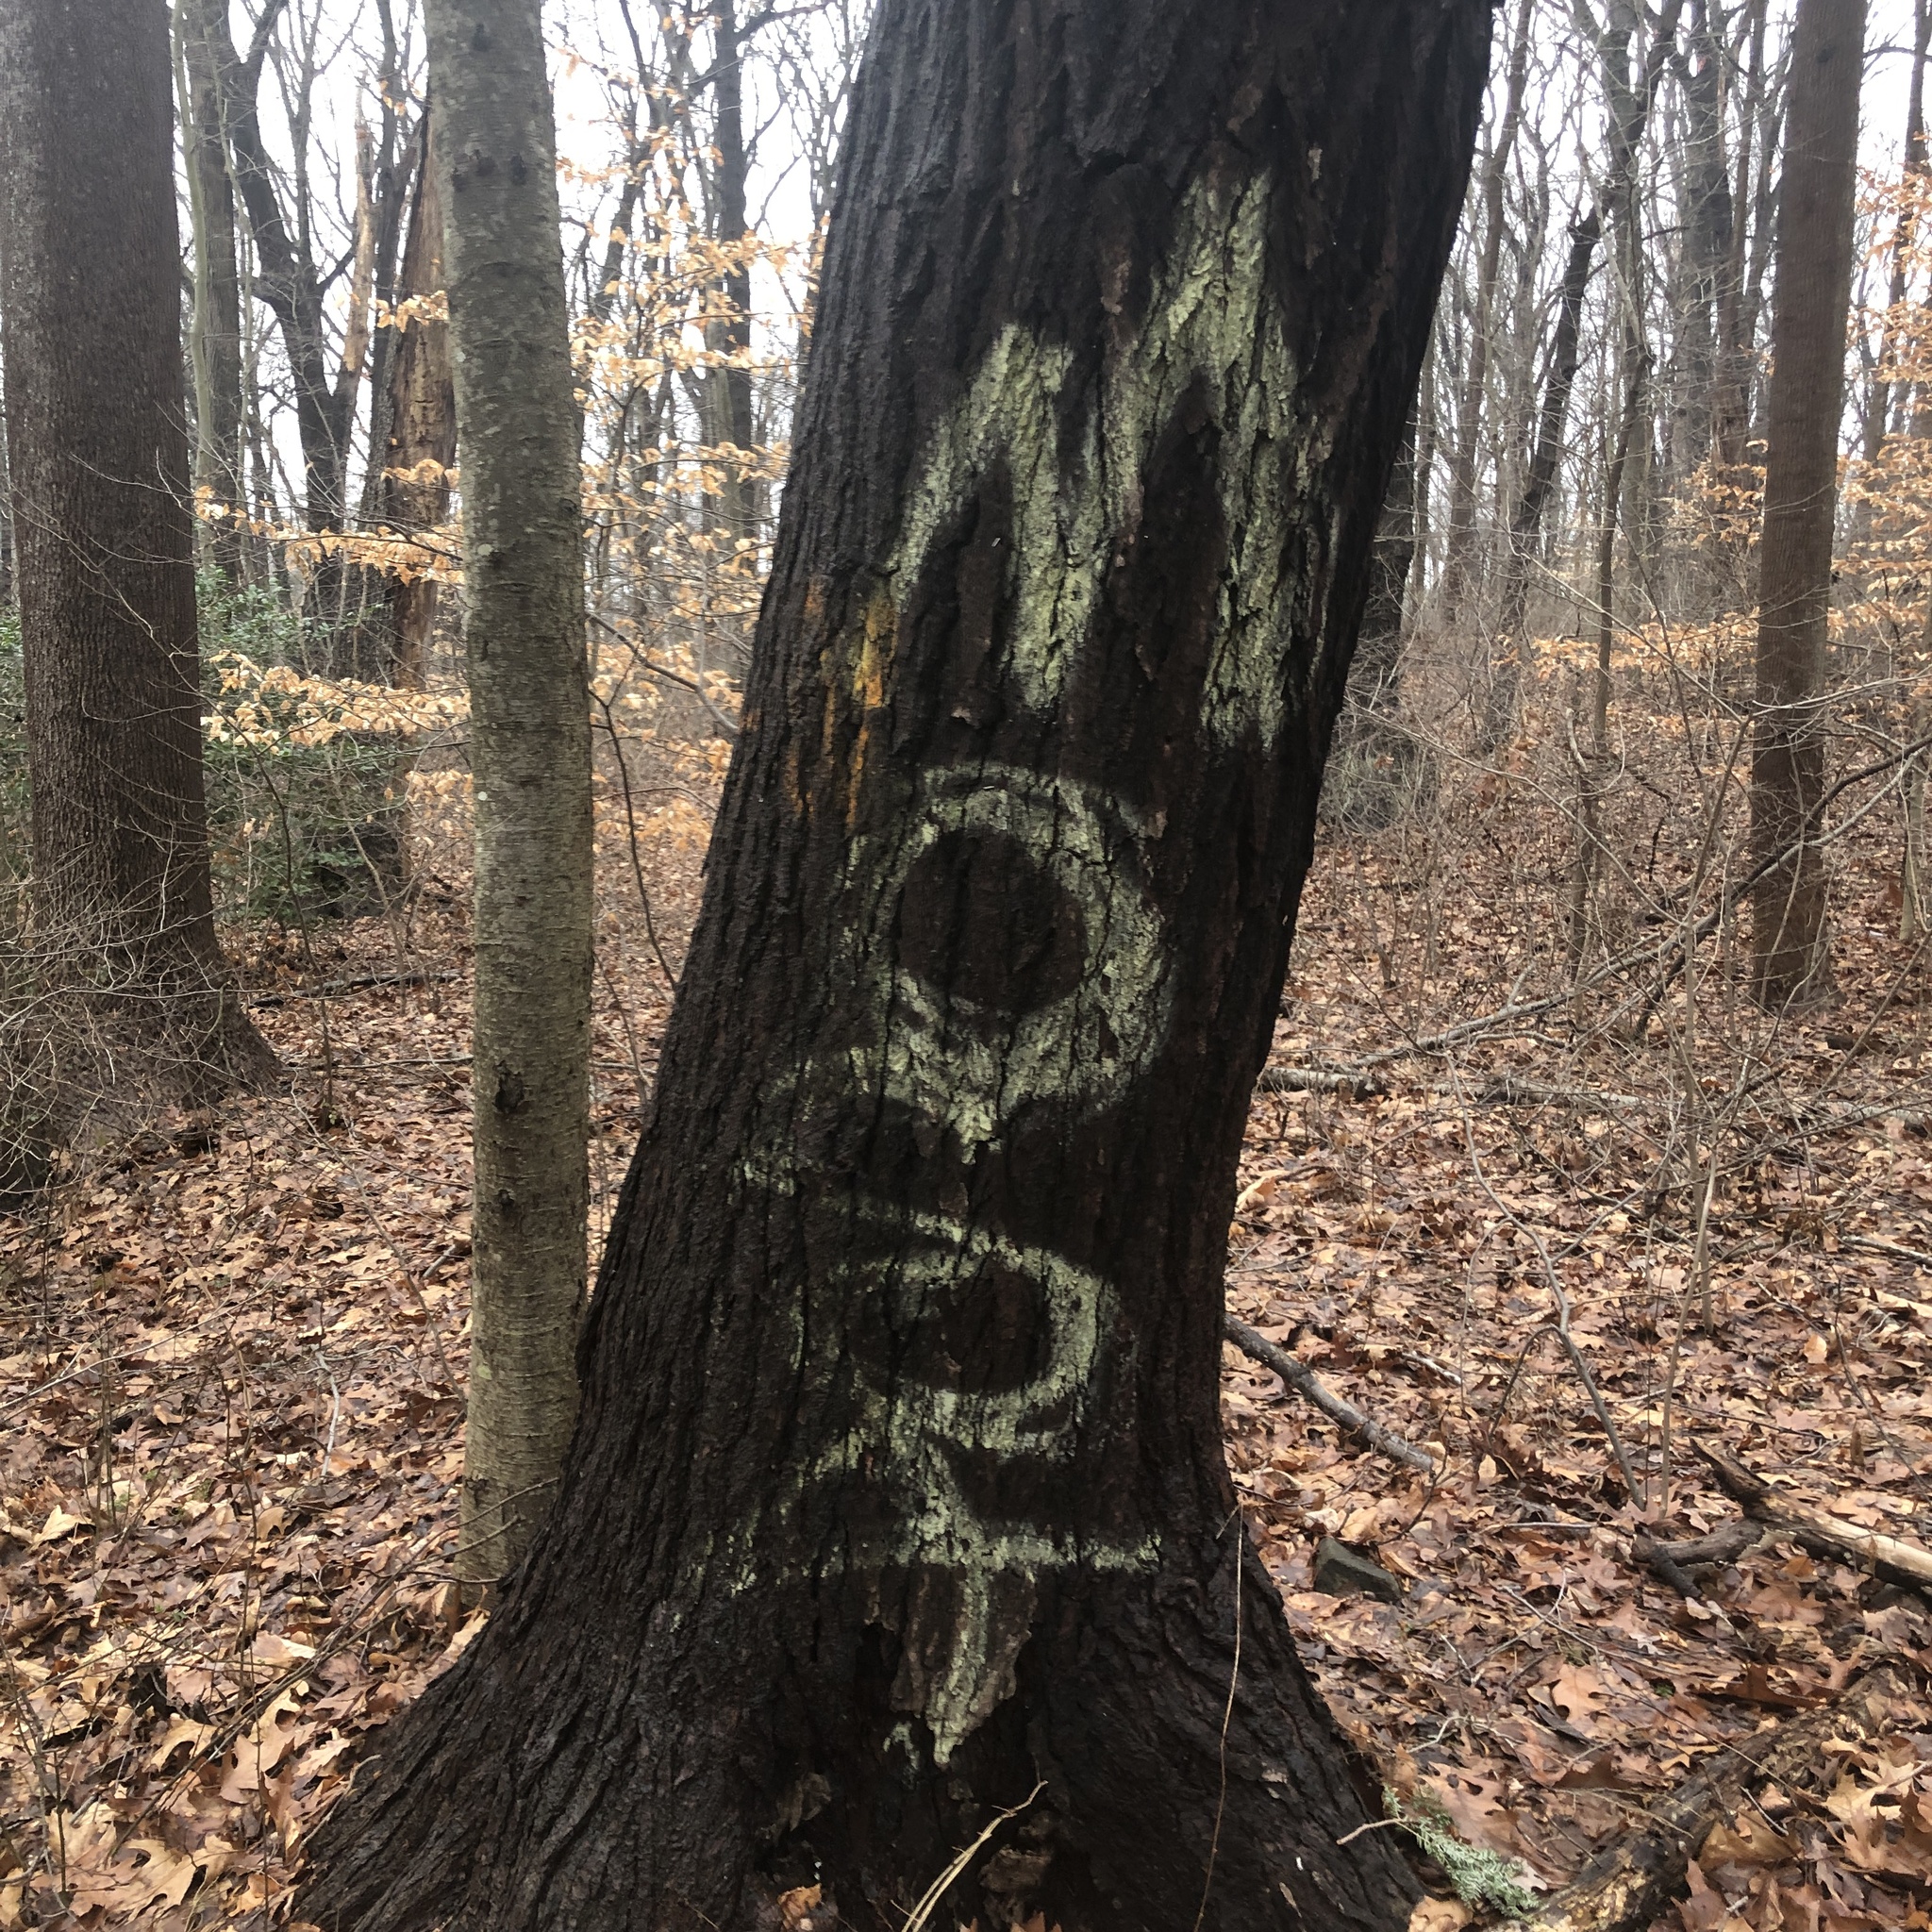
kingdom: Plantae
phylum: Tracheophyta
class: Pinopsida
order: Pinales
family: Pinaceae
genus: Tsuga
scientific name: Tsuga canadensis
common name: Eastern hemlock
